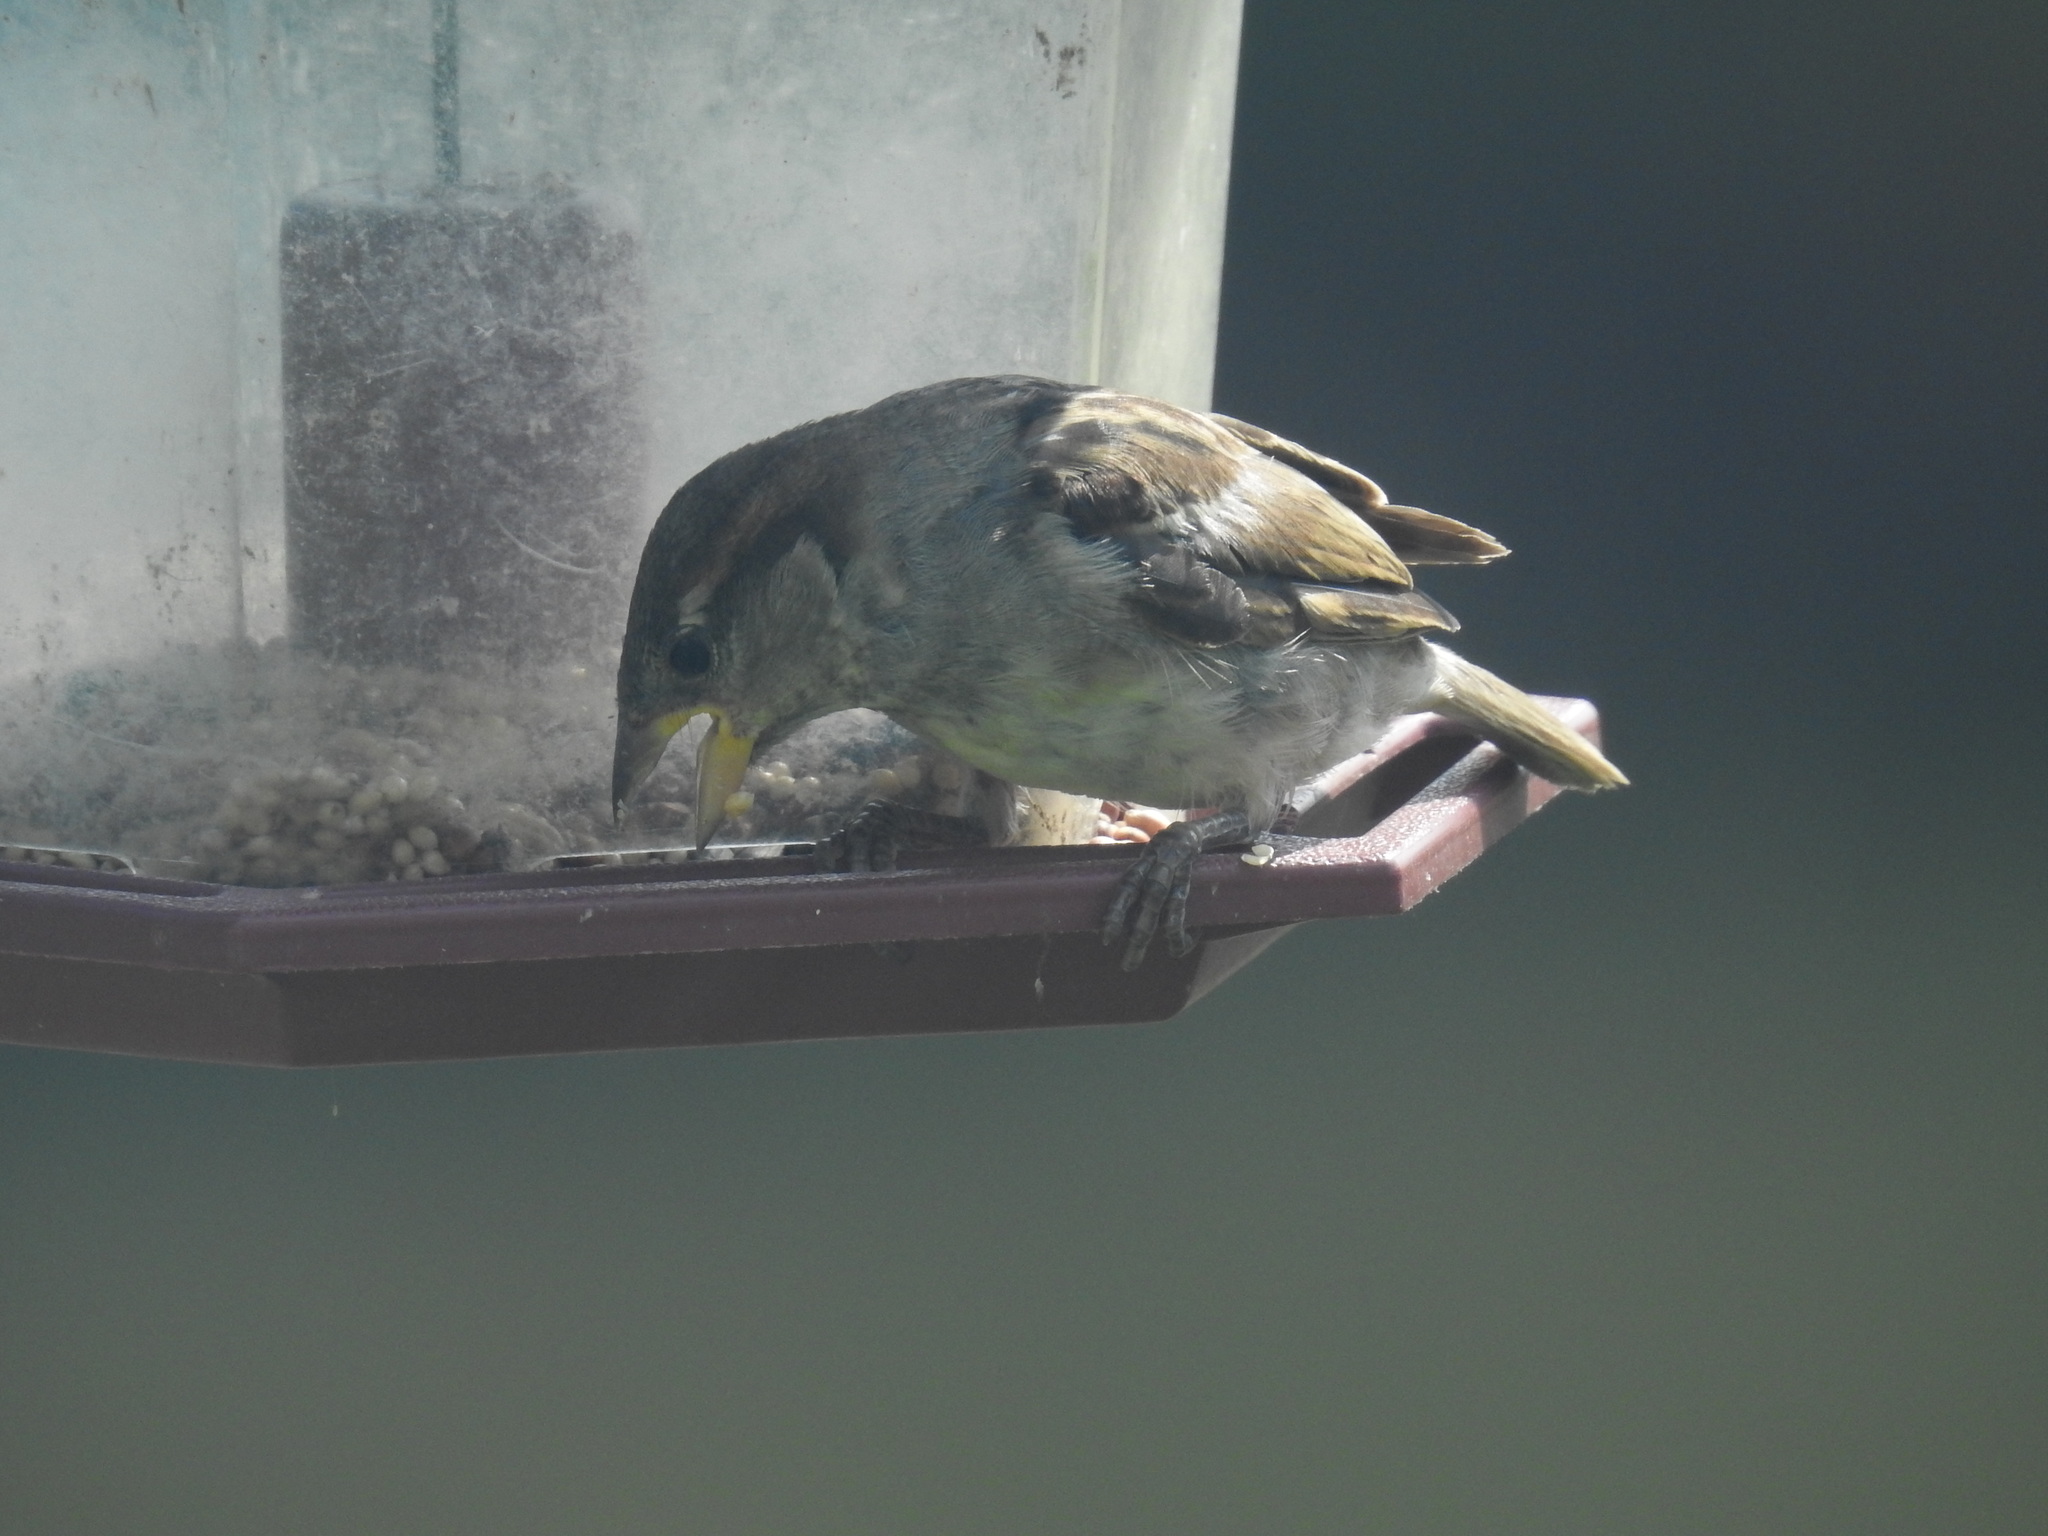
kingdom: Animalia
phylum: Chordata
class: Aves
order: Passeriformes
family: Passeridae
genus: Passer
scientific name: Passer domesticus
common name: House sparrow
